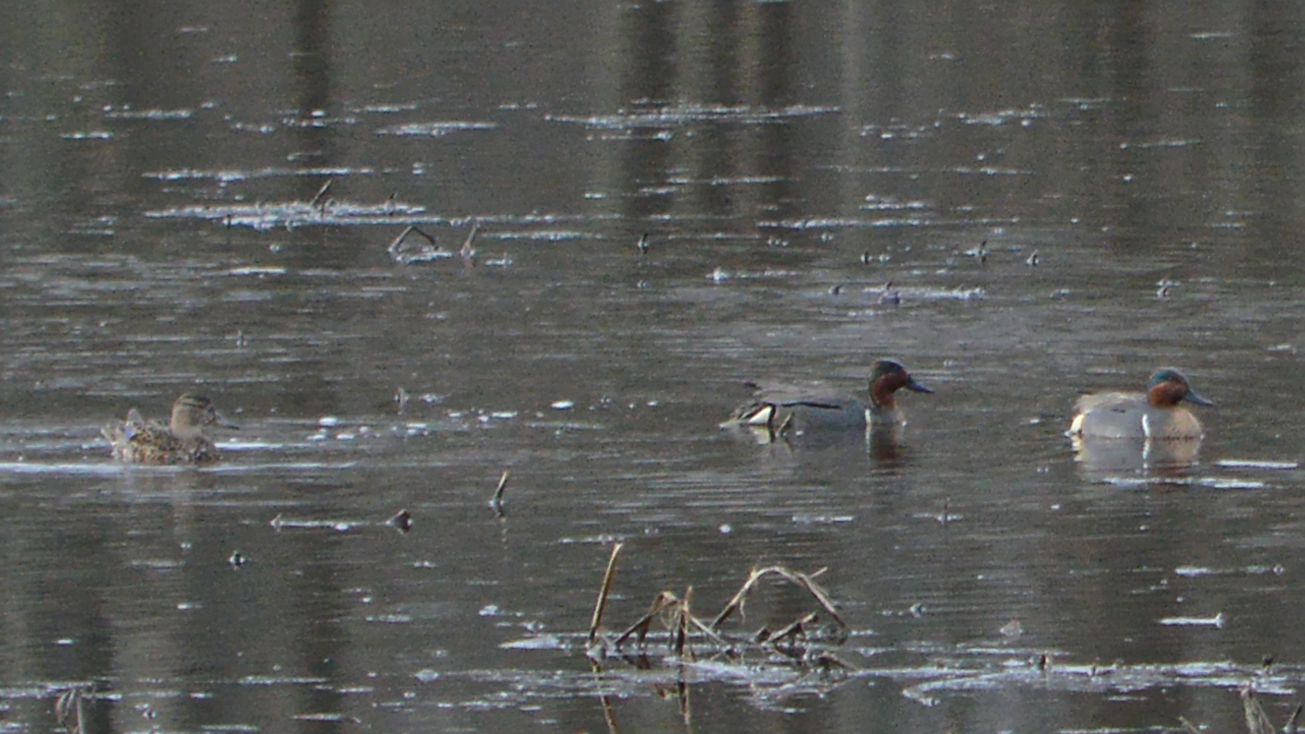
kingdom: Animalia
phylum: Chordata
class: Aves
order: Anseriformes
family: Anatidae
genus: Anas
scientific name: Anas crecca
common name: Eurasian teal
